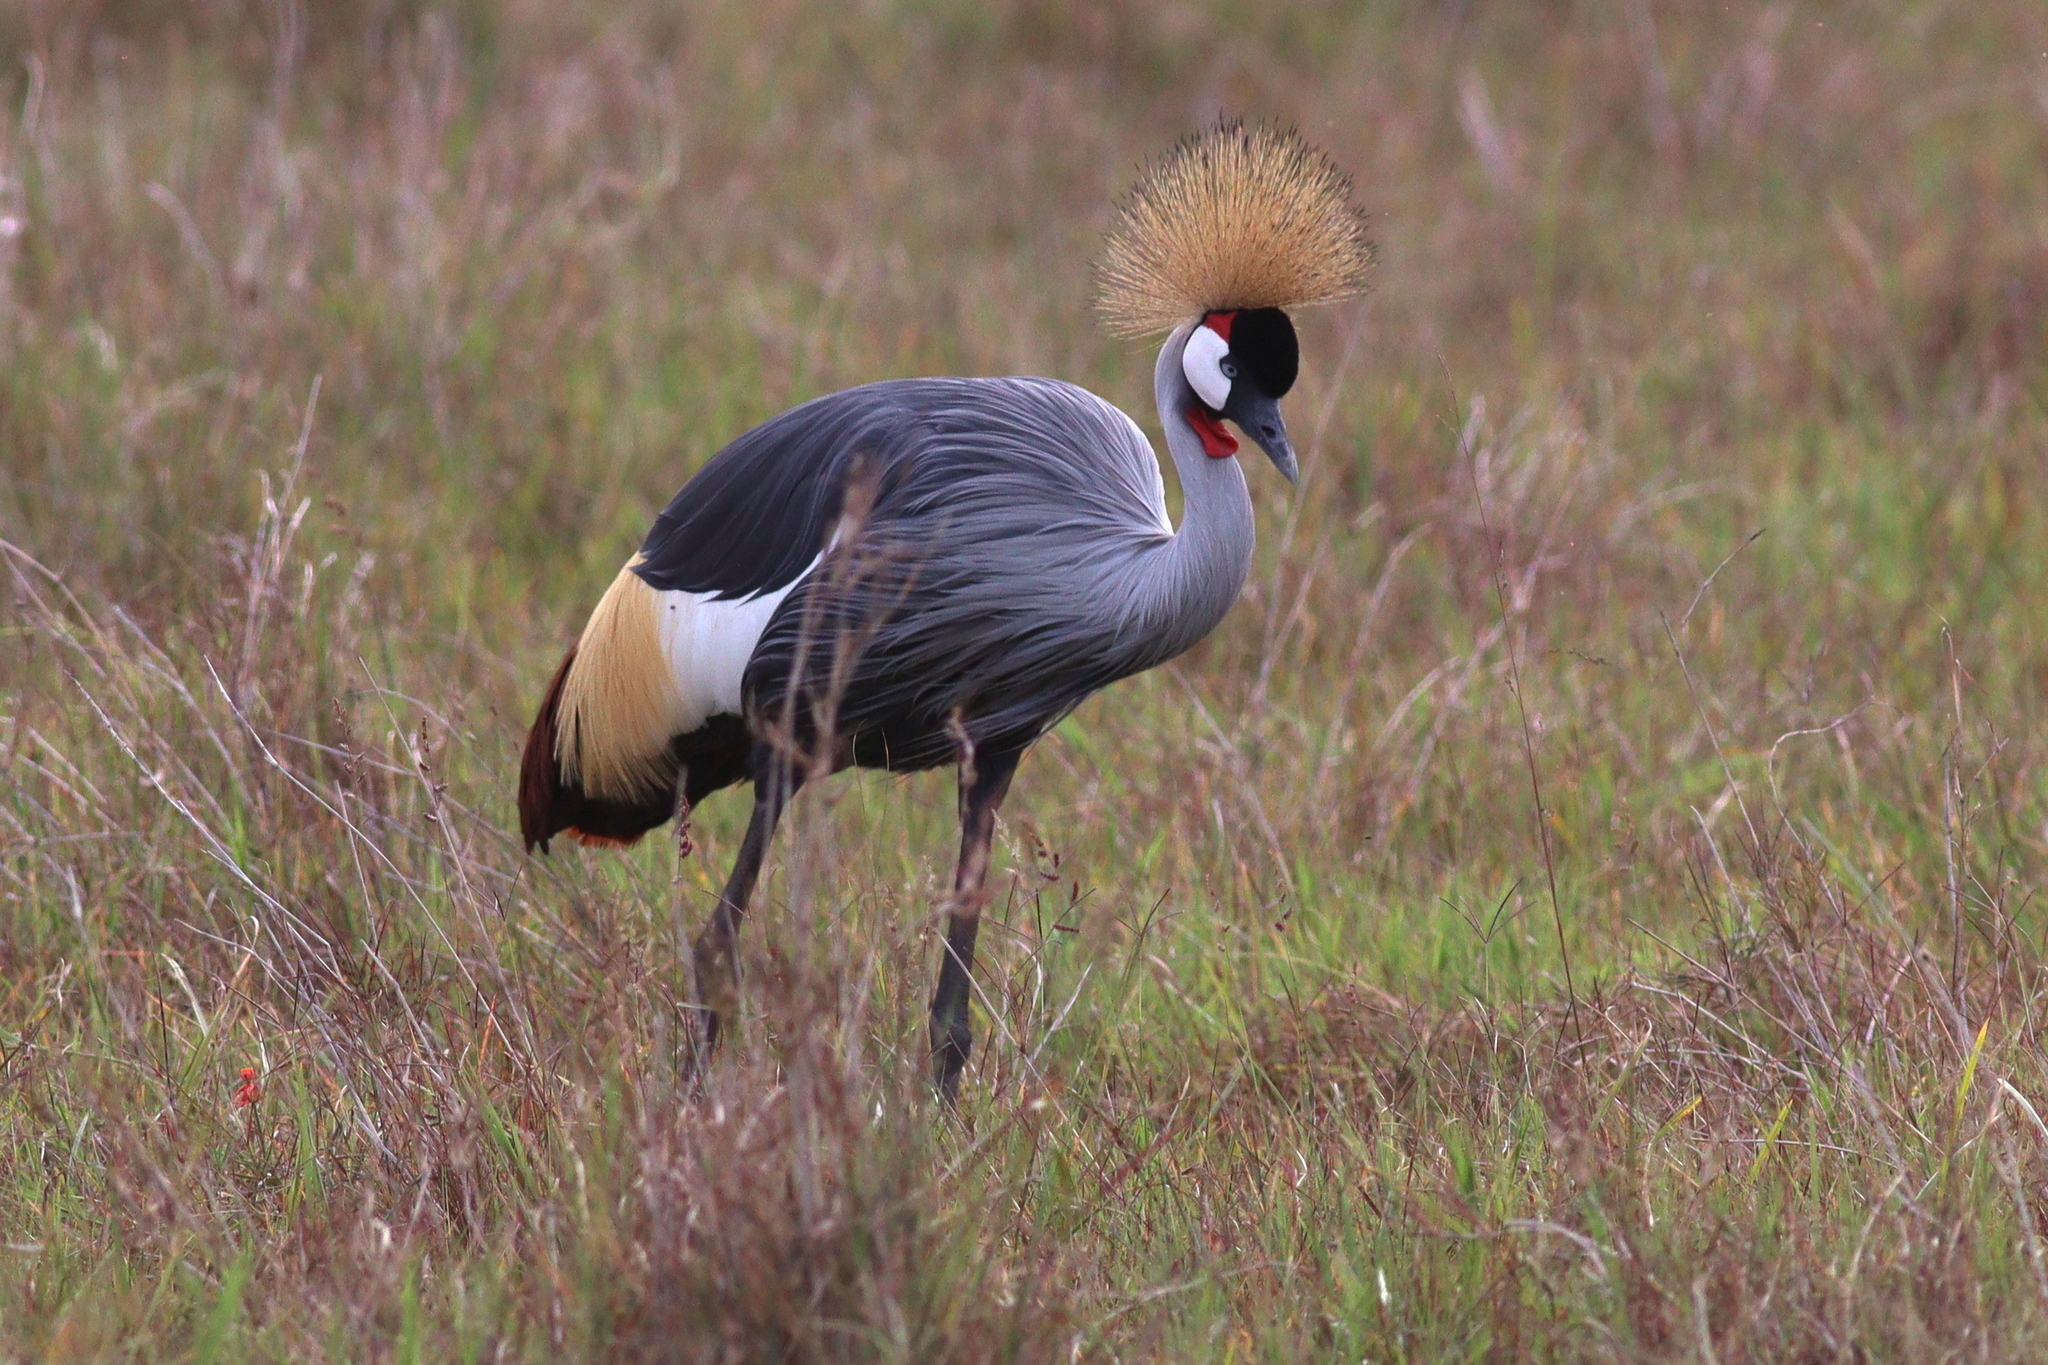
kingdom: Animalia
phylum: Chordata
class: Aves
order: Gruiformes
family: Gruidae
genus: Balearica
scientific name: Balearica regulorum
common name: Grey crowned crane
